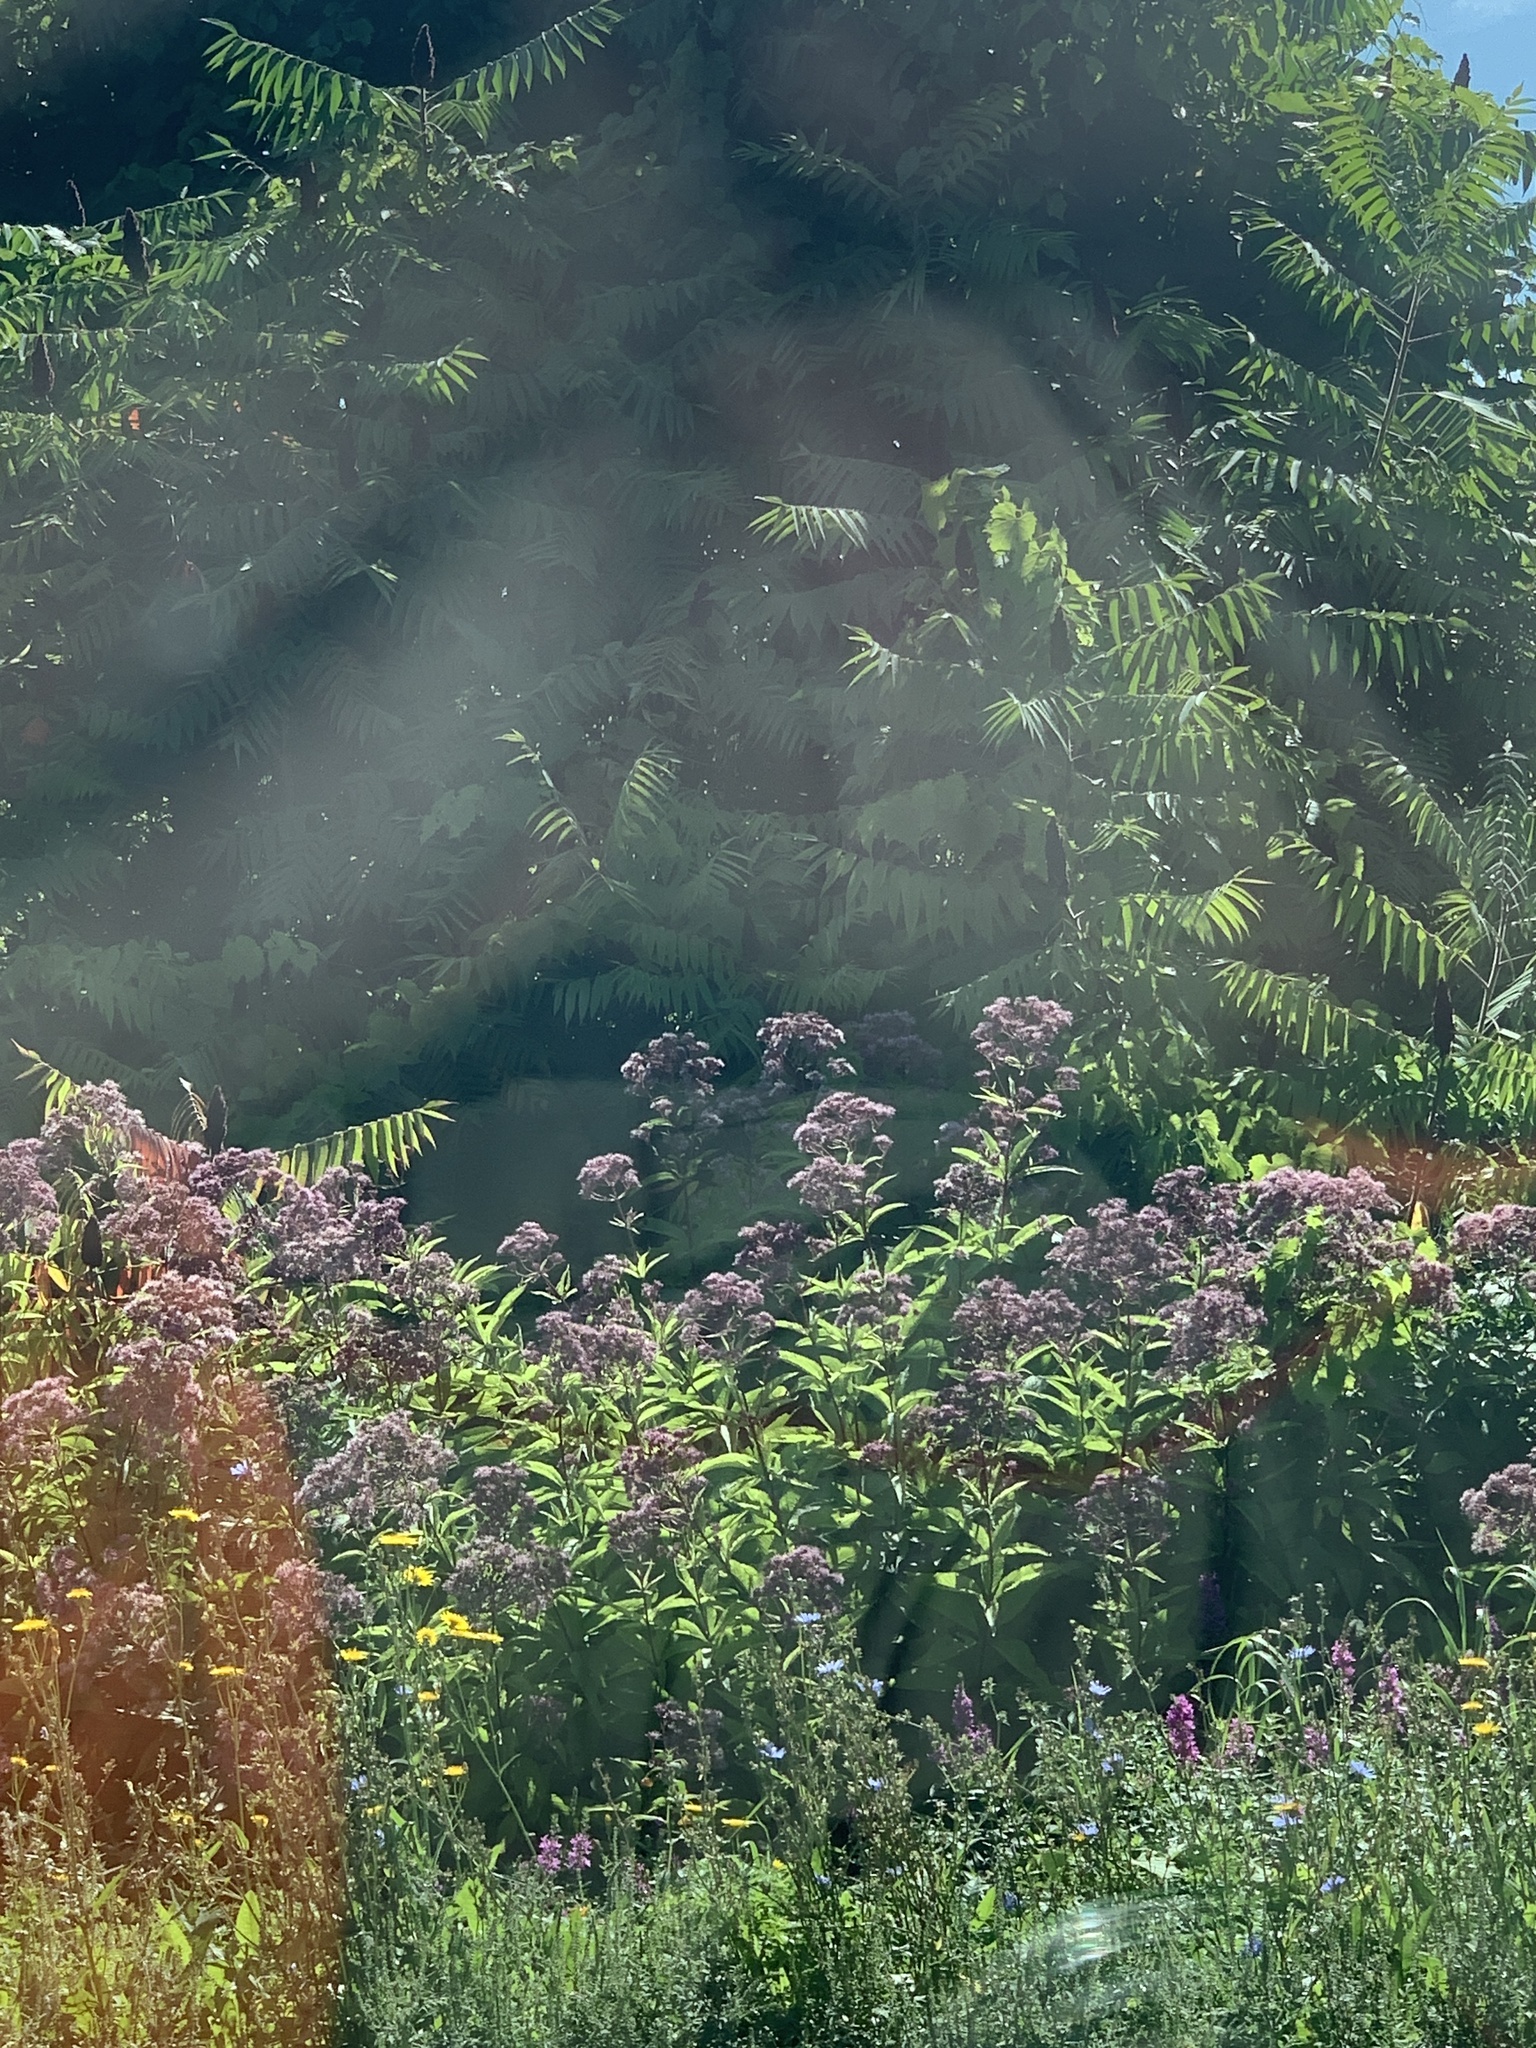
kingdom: Plantae
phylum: Tracheophyta
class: Magnoliopsida
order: Asterales
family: Asteraceae
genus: Eutrochium
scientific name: Eutrochium maculatum
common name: Spotted joe pye weed
